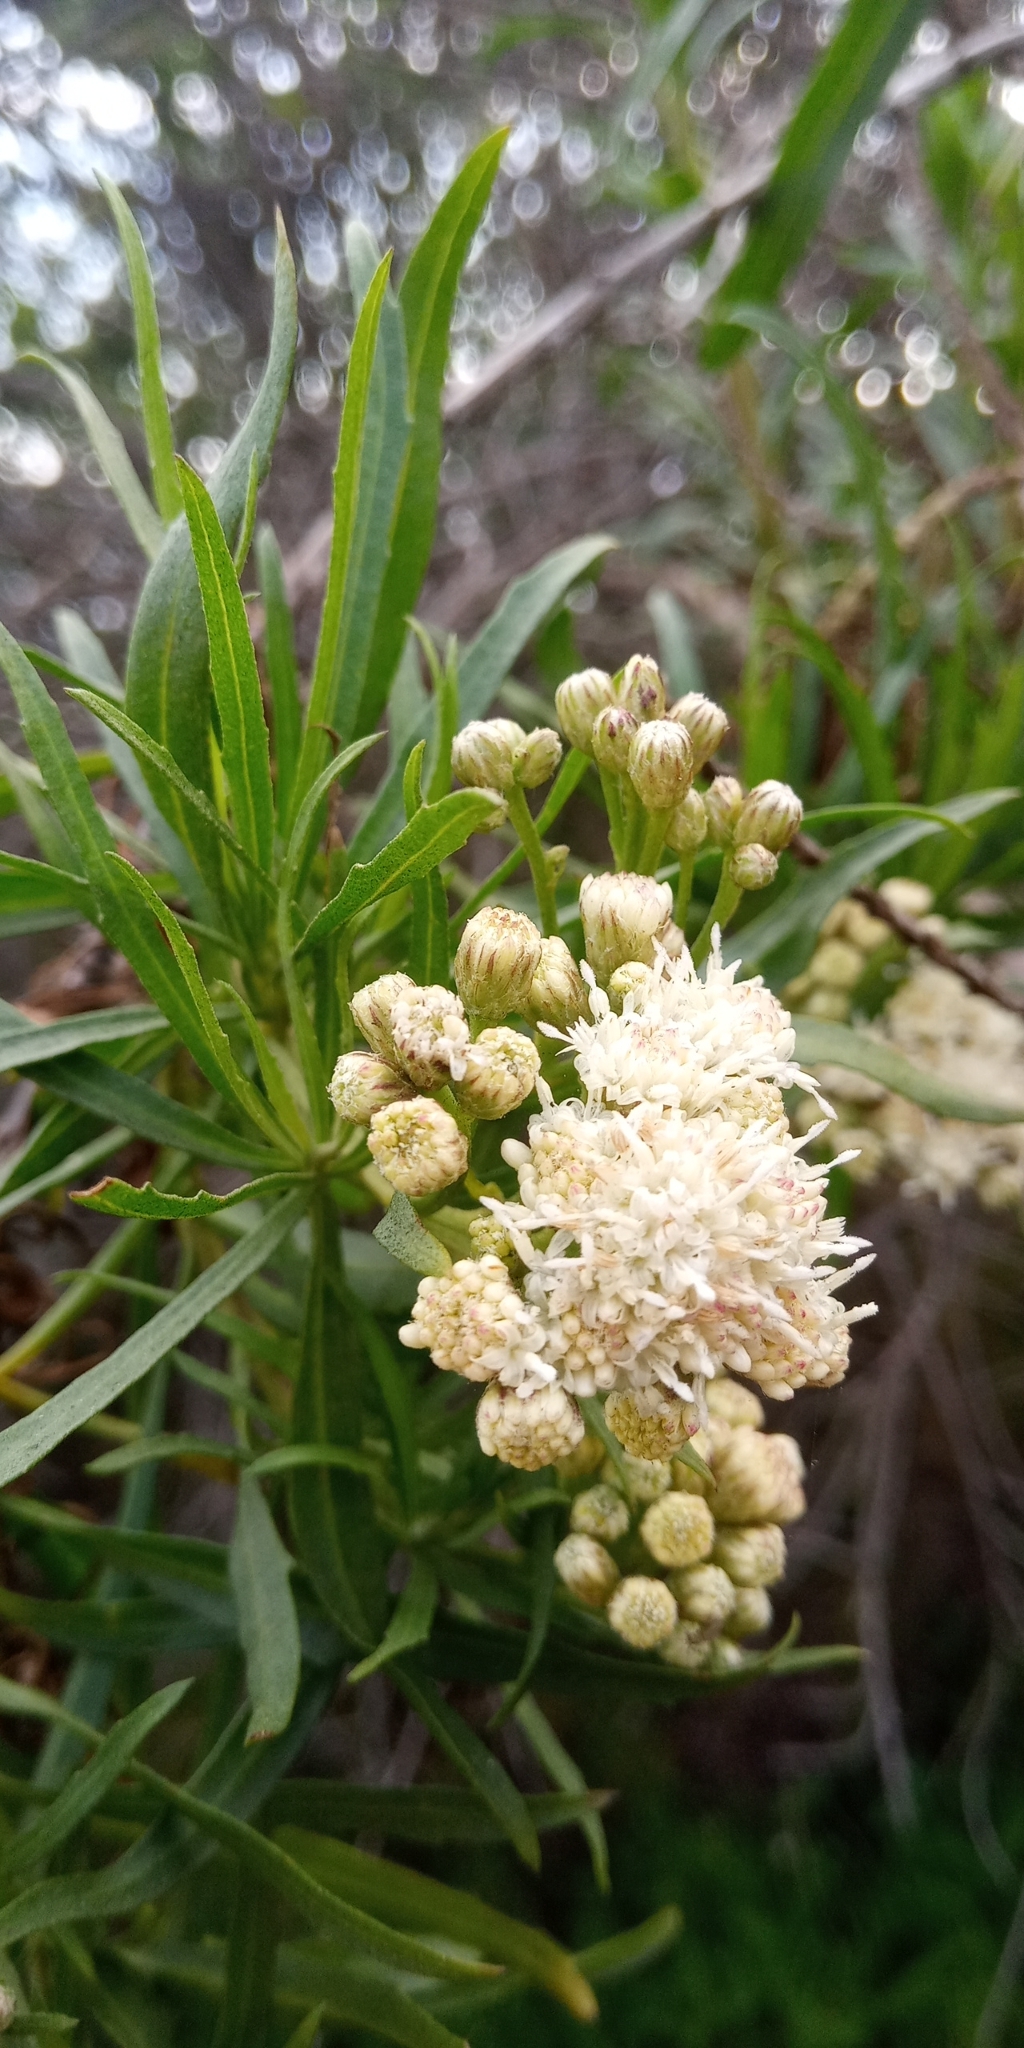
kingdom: Plantae
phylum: Tracheophyta
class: Magnoliopsida
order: Asterales
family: Asteraceae
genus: Baccharis
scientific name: Baccharis salicifolia
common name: Sticky baccharis
